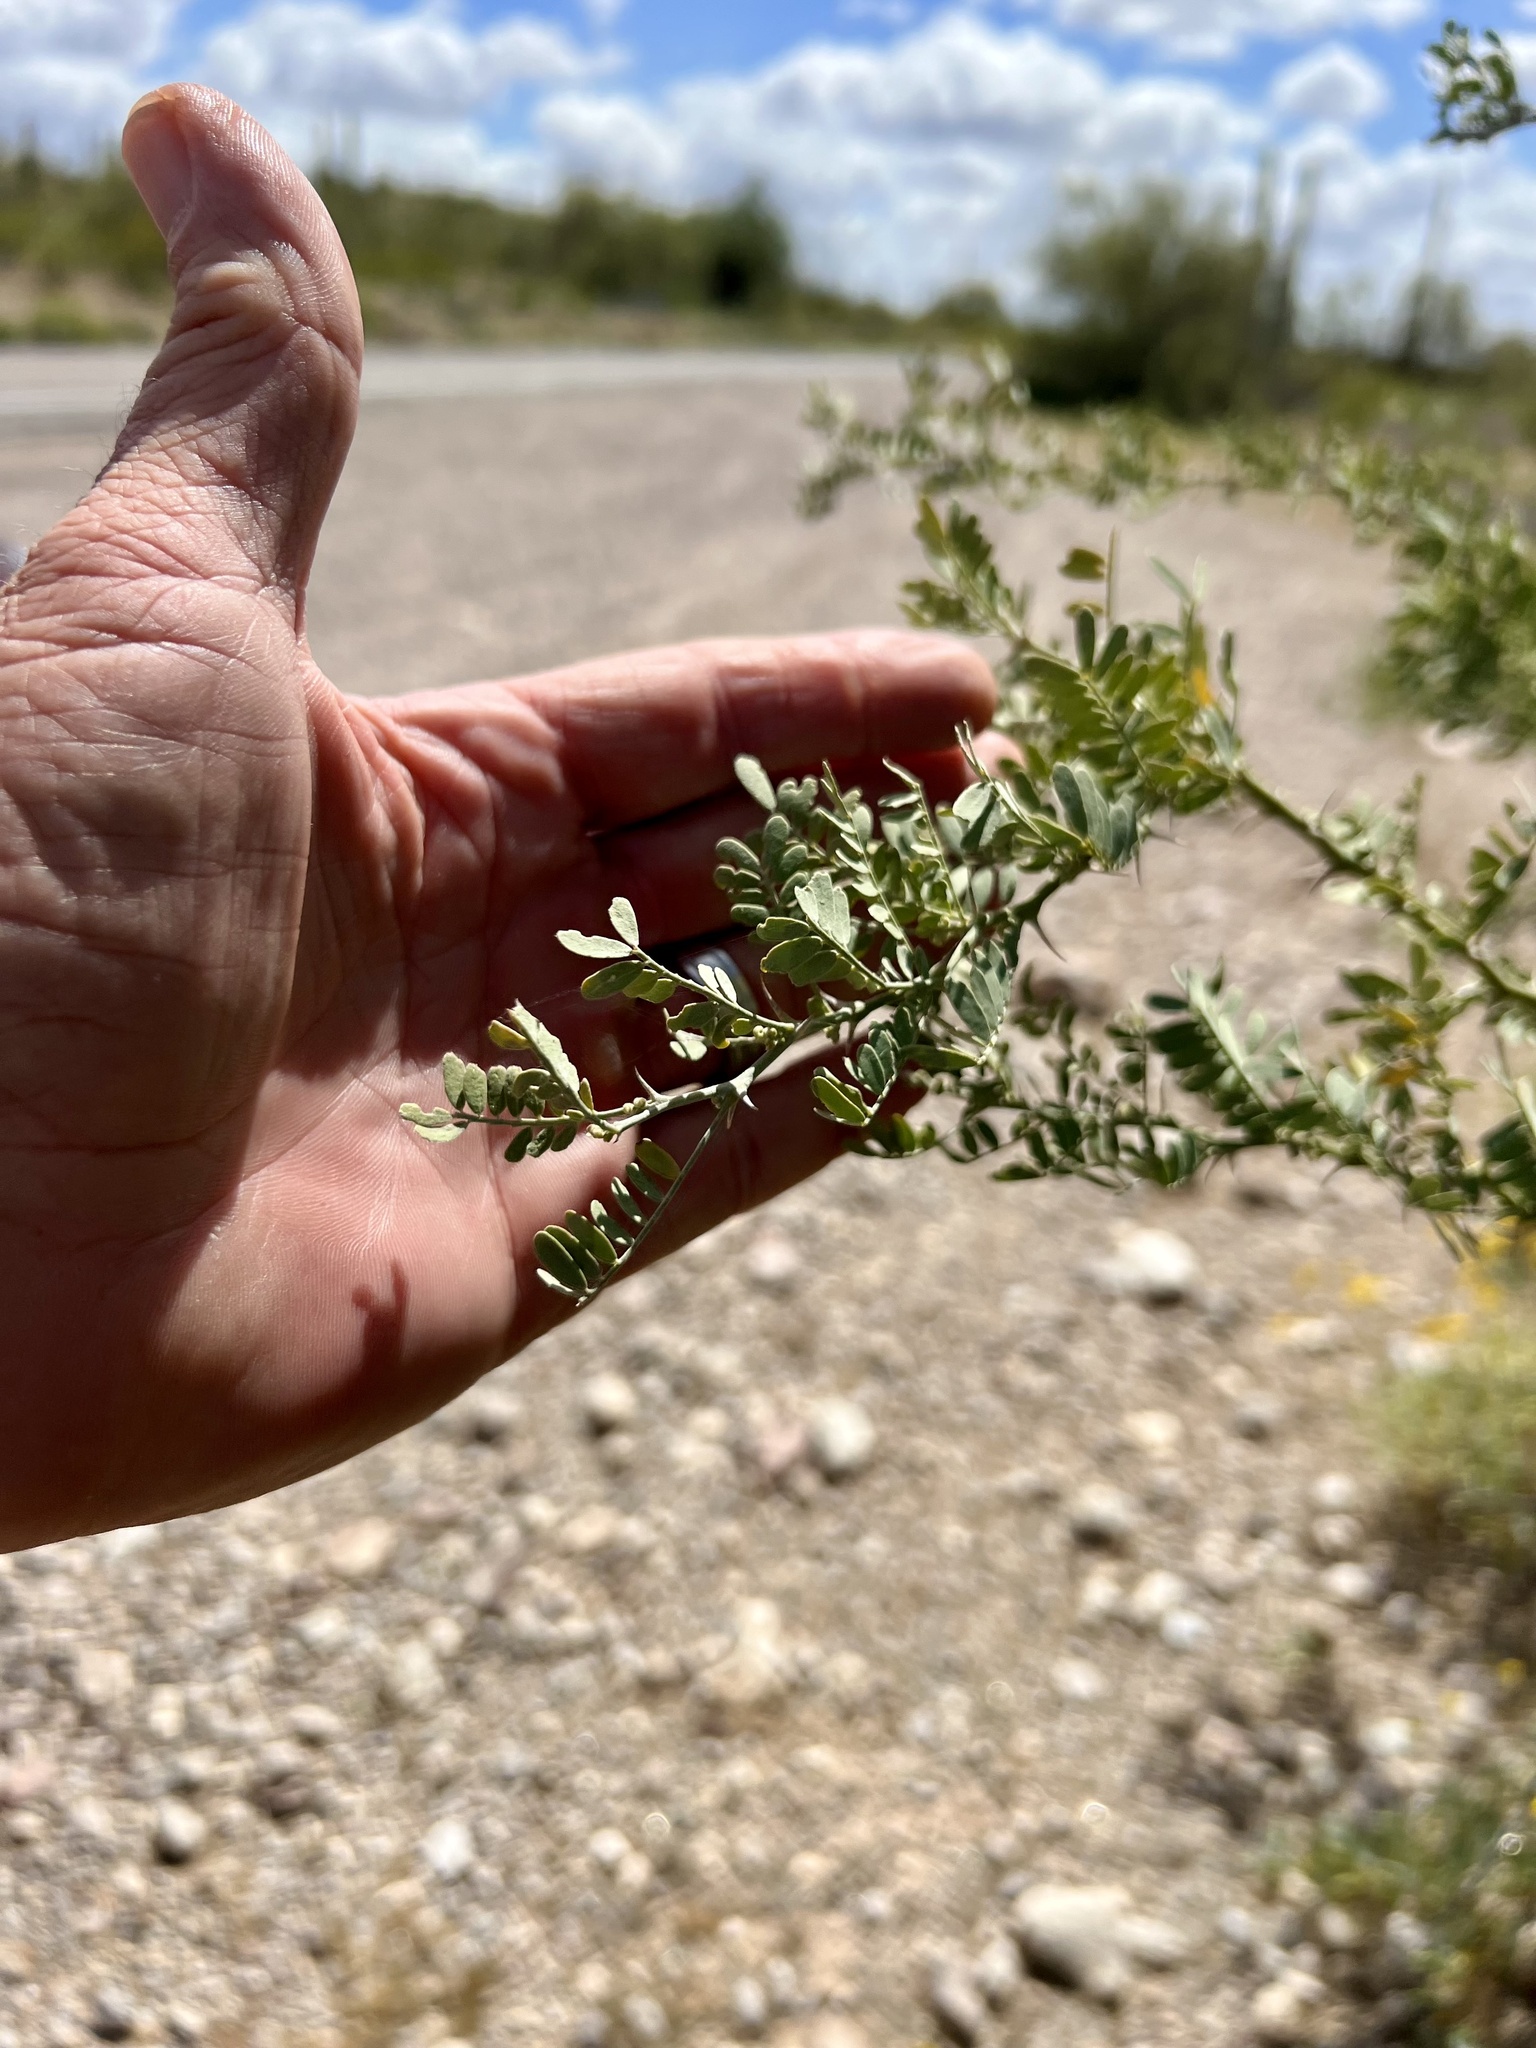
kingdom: Plantae
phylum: Tracheophyta
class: Magnoliopsida
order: Fabales
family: Fabaceae
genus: Olneya
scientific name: Olneya tesota
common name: Desert ironwood
